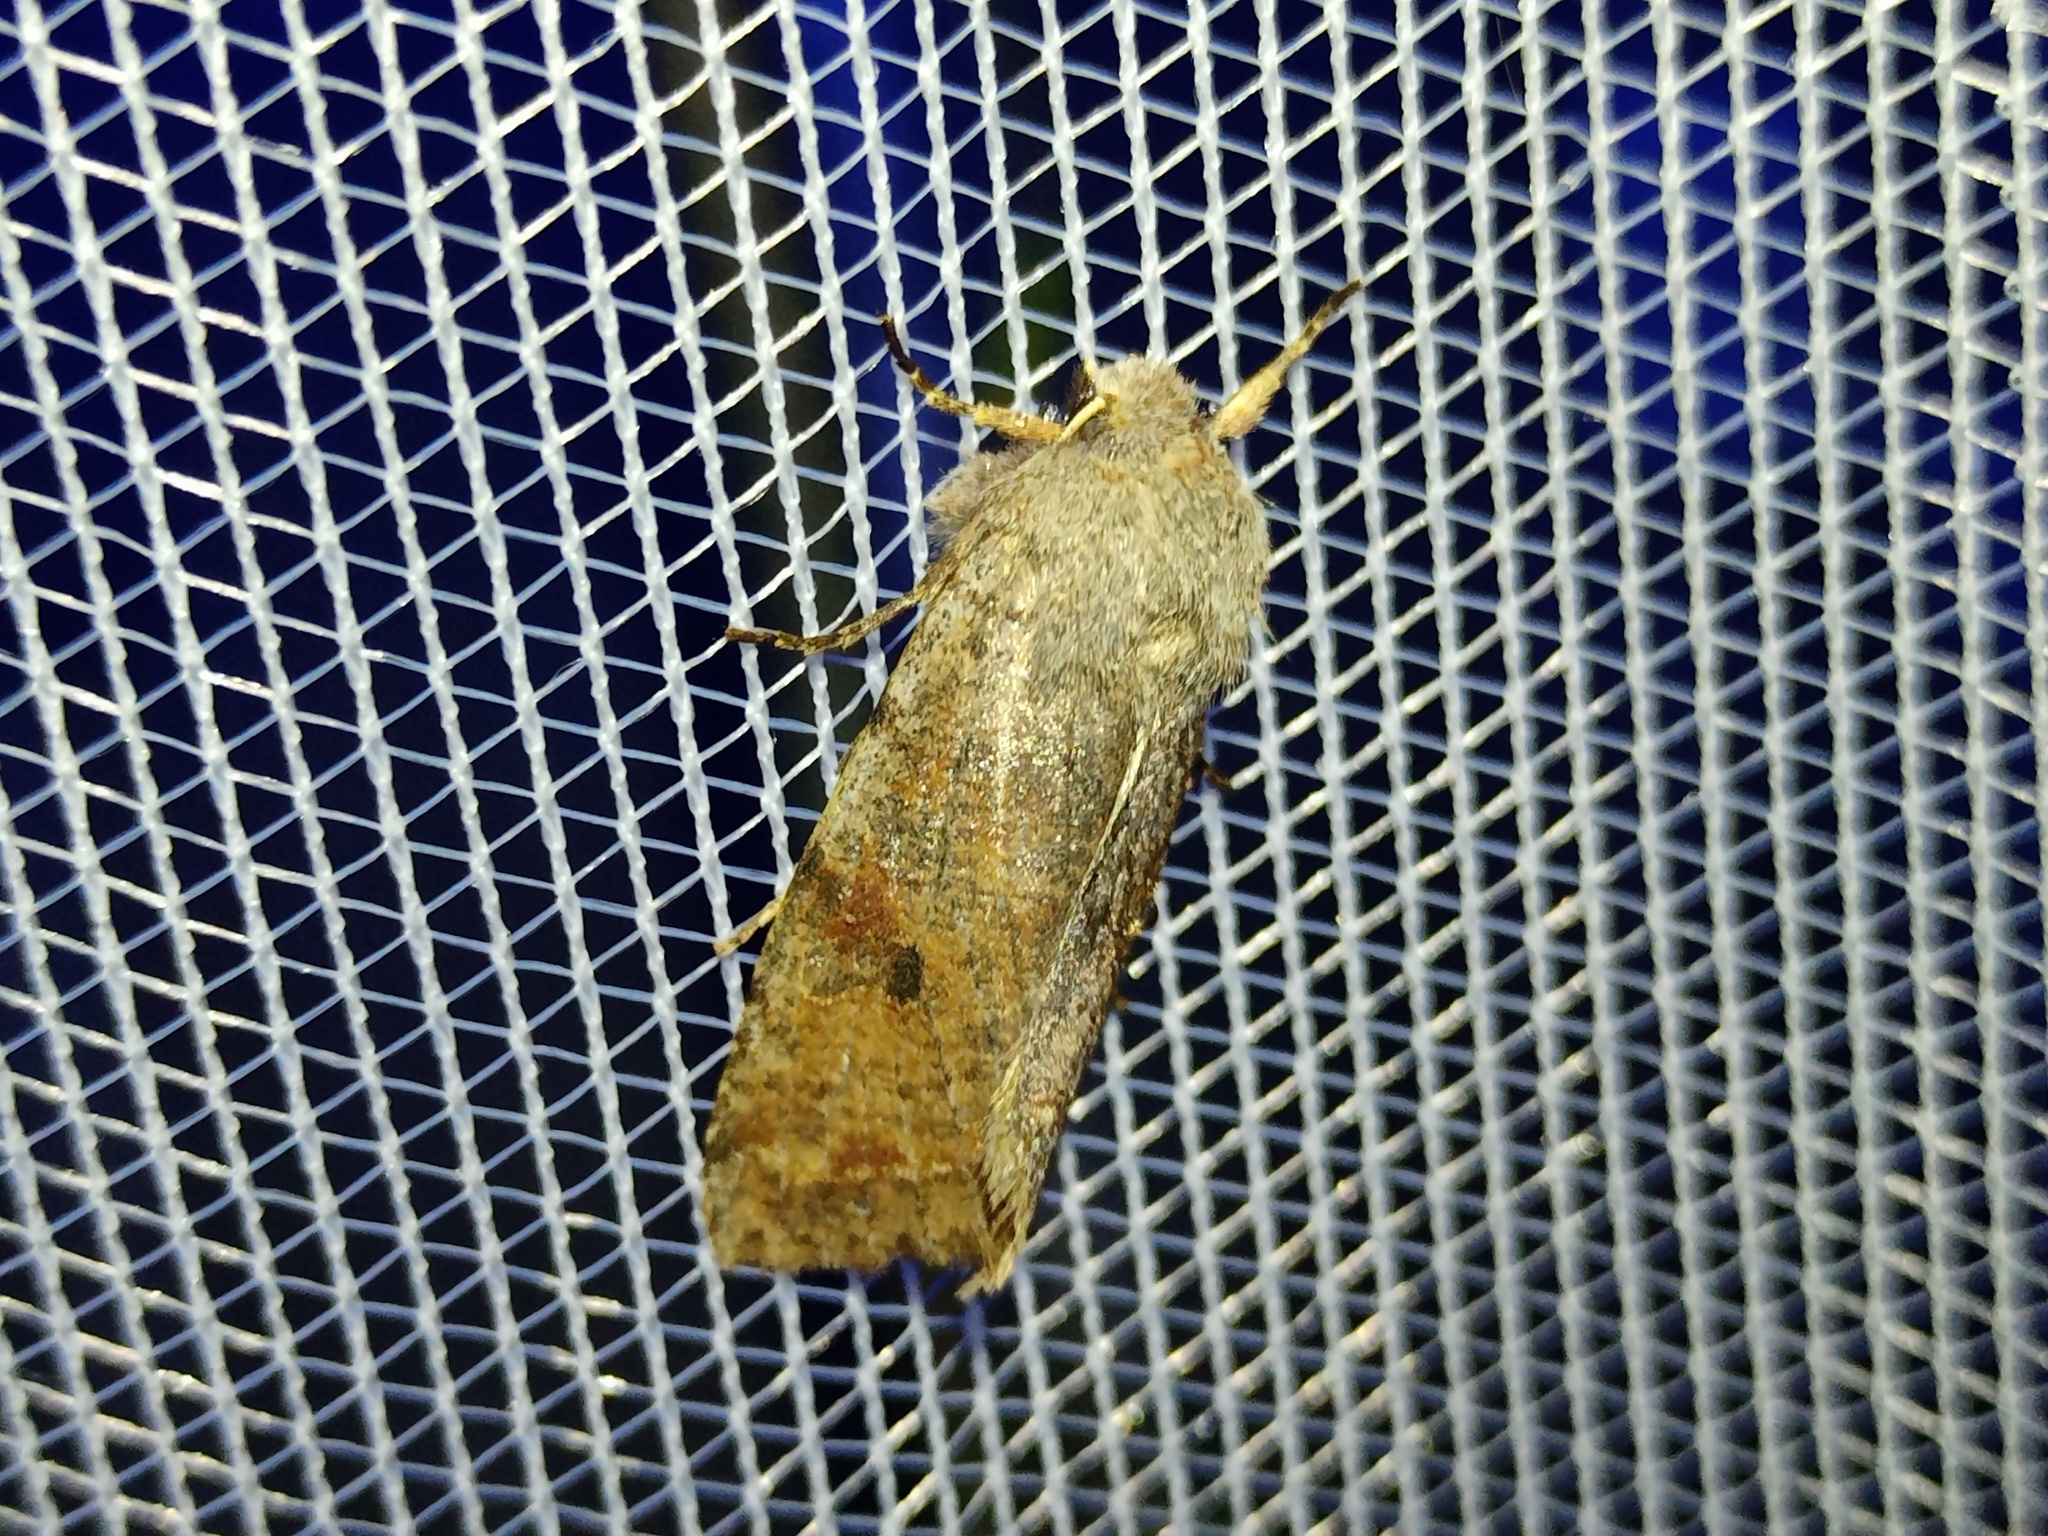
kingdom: Animalia
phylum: Arthropoda
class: Insecta
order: Lepidoptera
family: Noctuidae
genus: Orthosia
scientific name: Orthosia incerta
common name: Clouded drab
